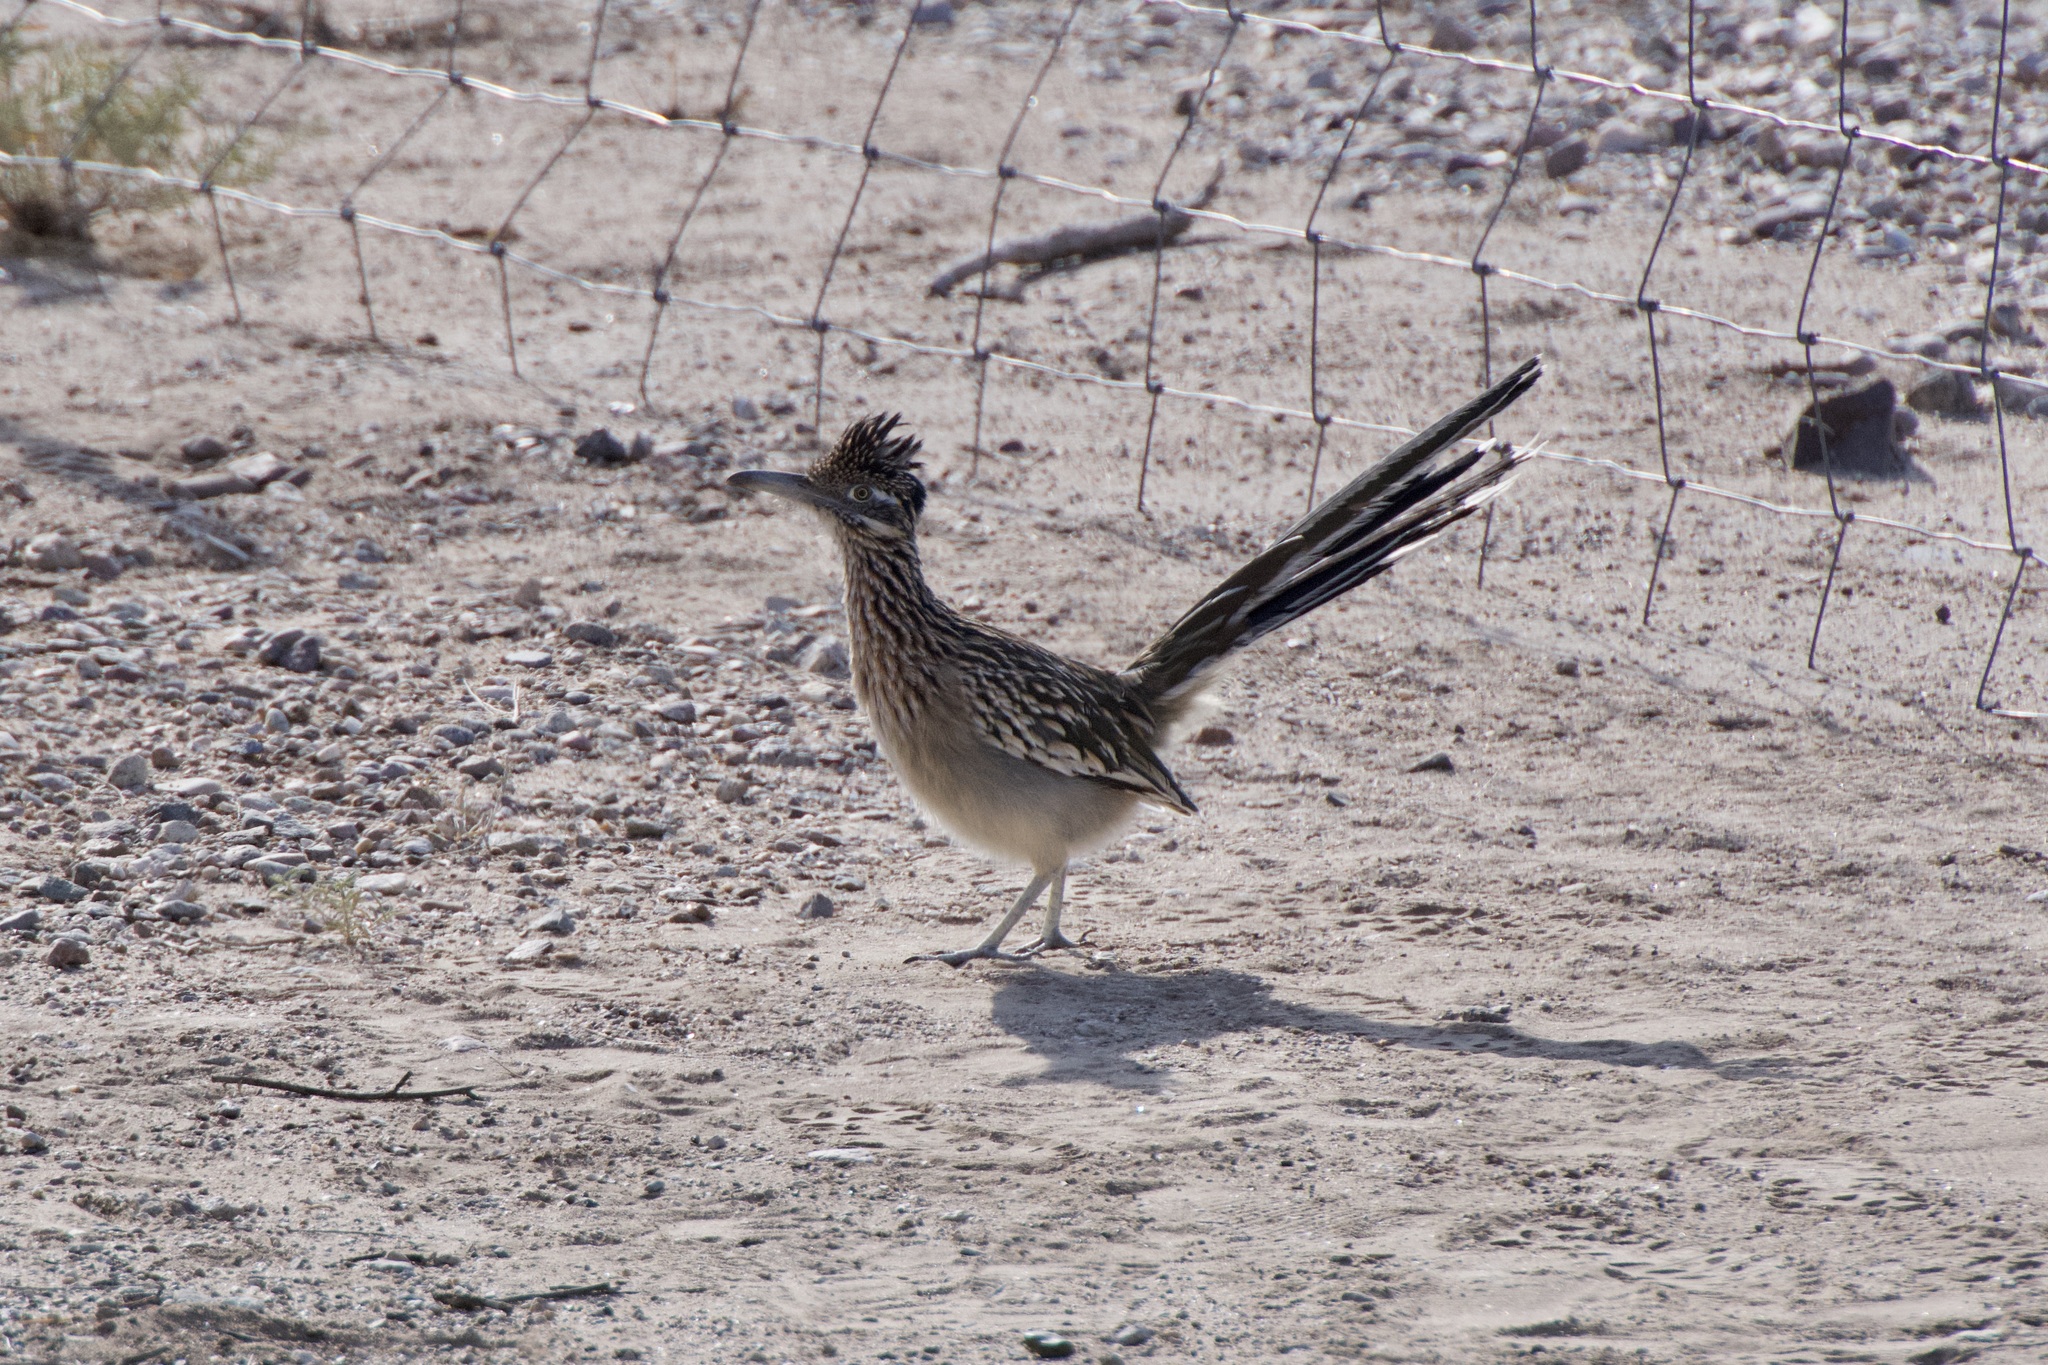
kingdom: Animalia
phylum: Chordata
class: Aves
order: Cuculiformes
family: Cuculidae
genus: Geococcyx
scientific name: Geococcyx californianus
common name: Greater roadrunner
